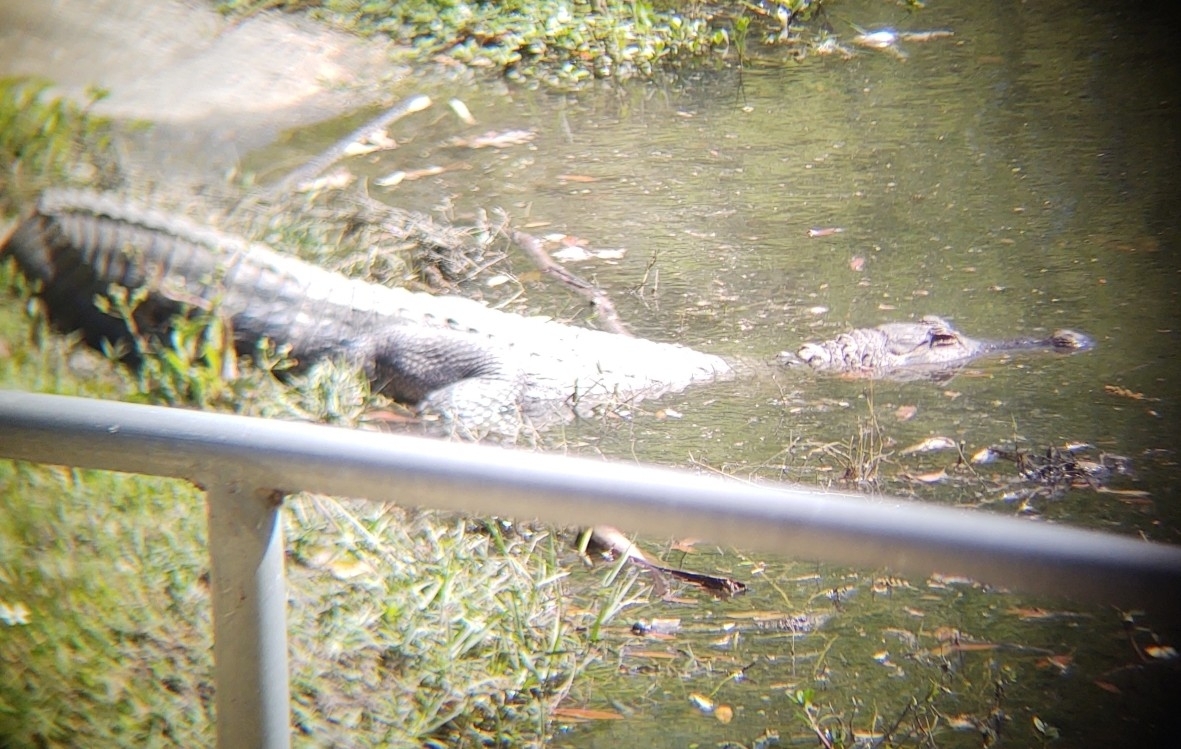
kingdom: Animalia
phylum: Chordata
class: Crocodylia
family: Alligatoridae
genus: Alligator
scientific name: Alligator mississippiensis
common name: American alligator
